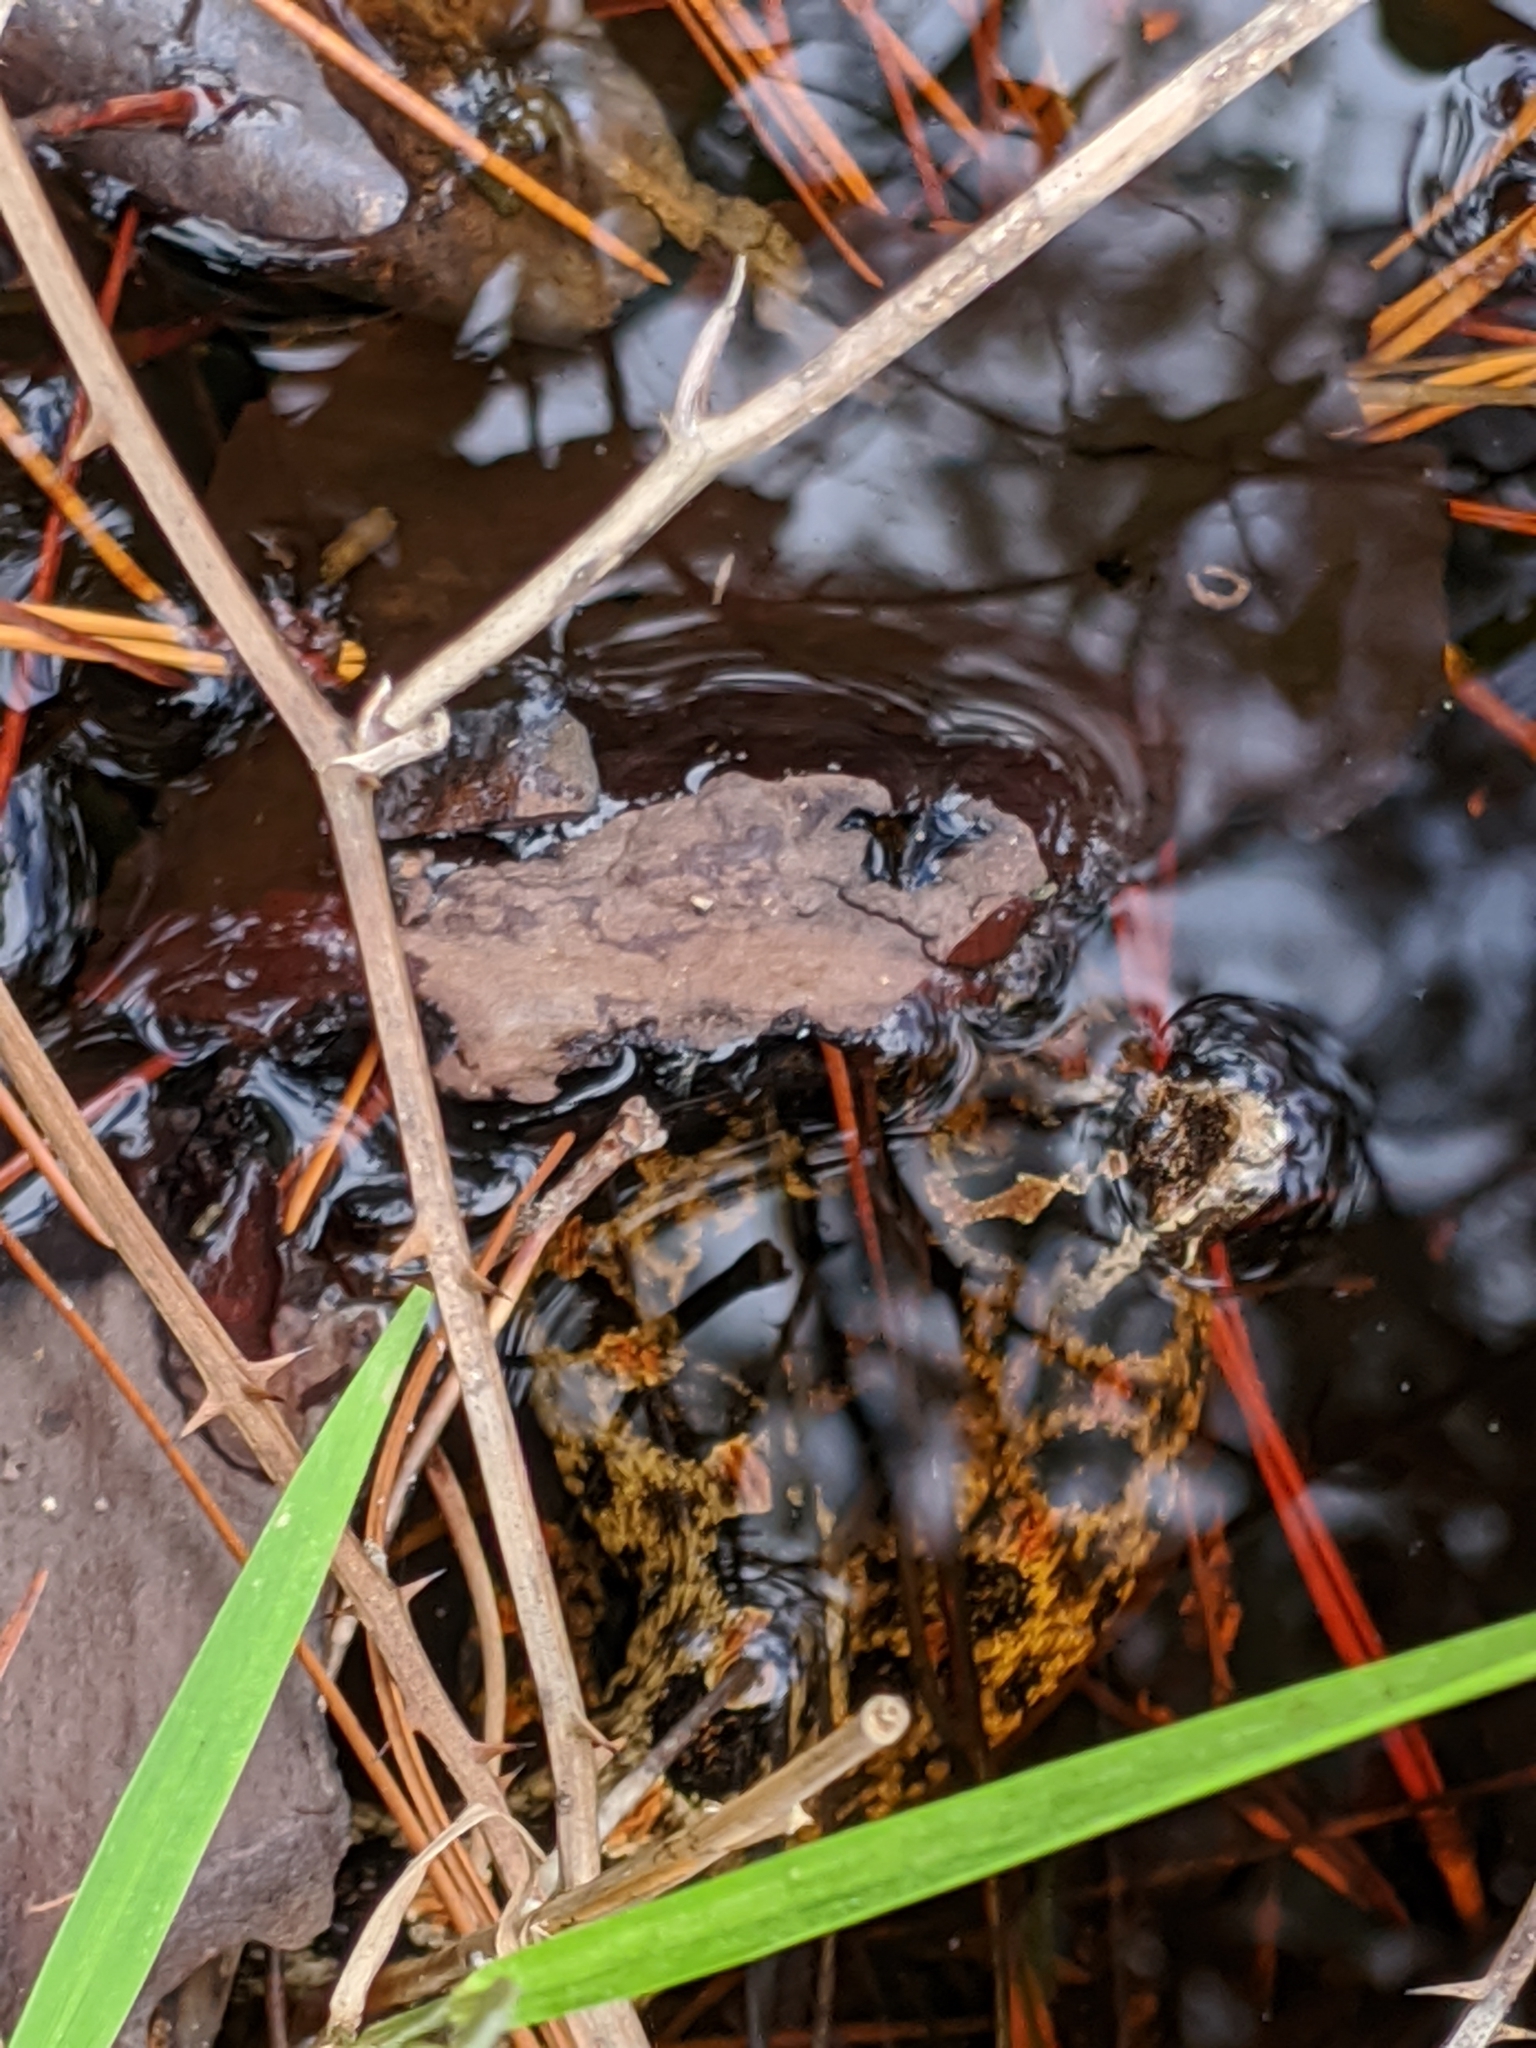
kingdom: Animalia
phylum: Chordata
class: Squamata
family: Viperidae
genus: Sistrurus
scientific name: Sistrurus miliarius
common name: Pygmy rattlesnake
